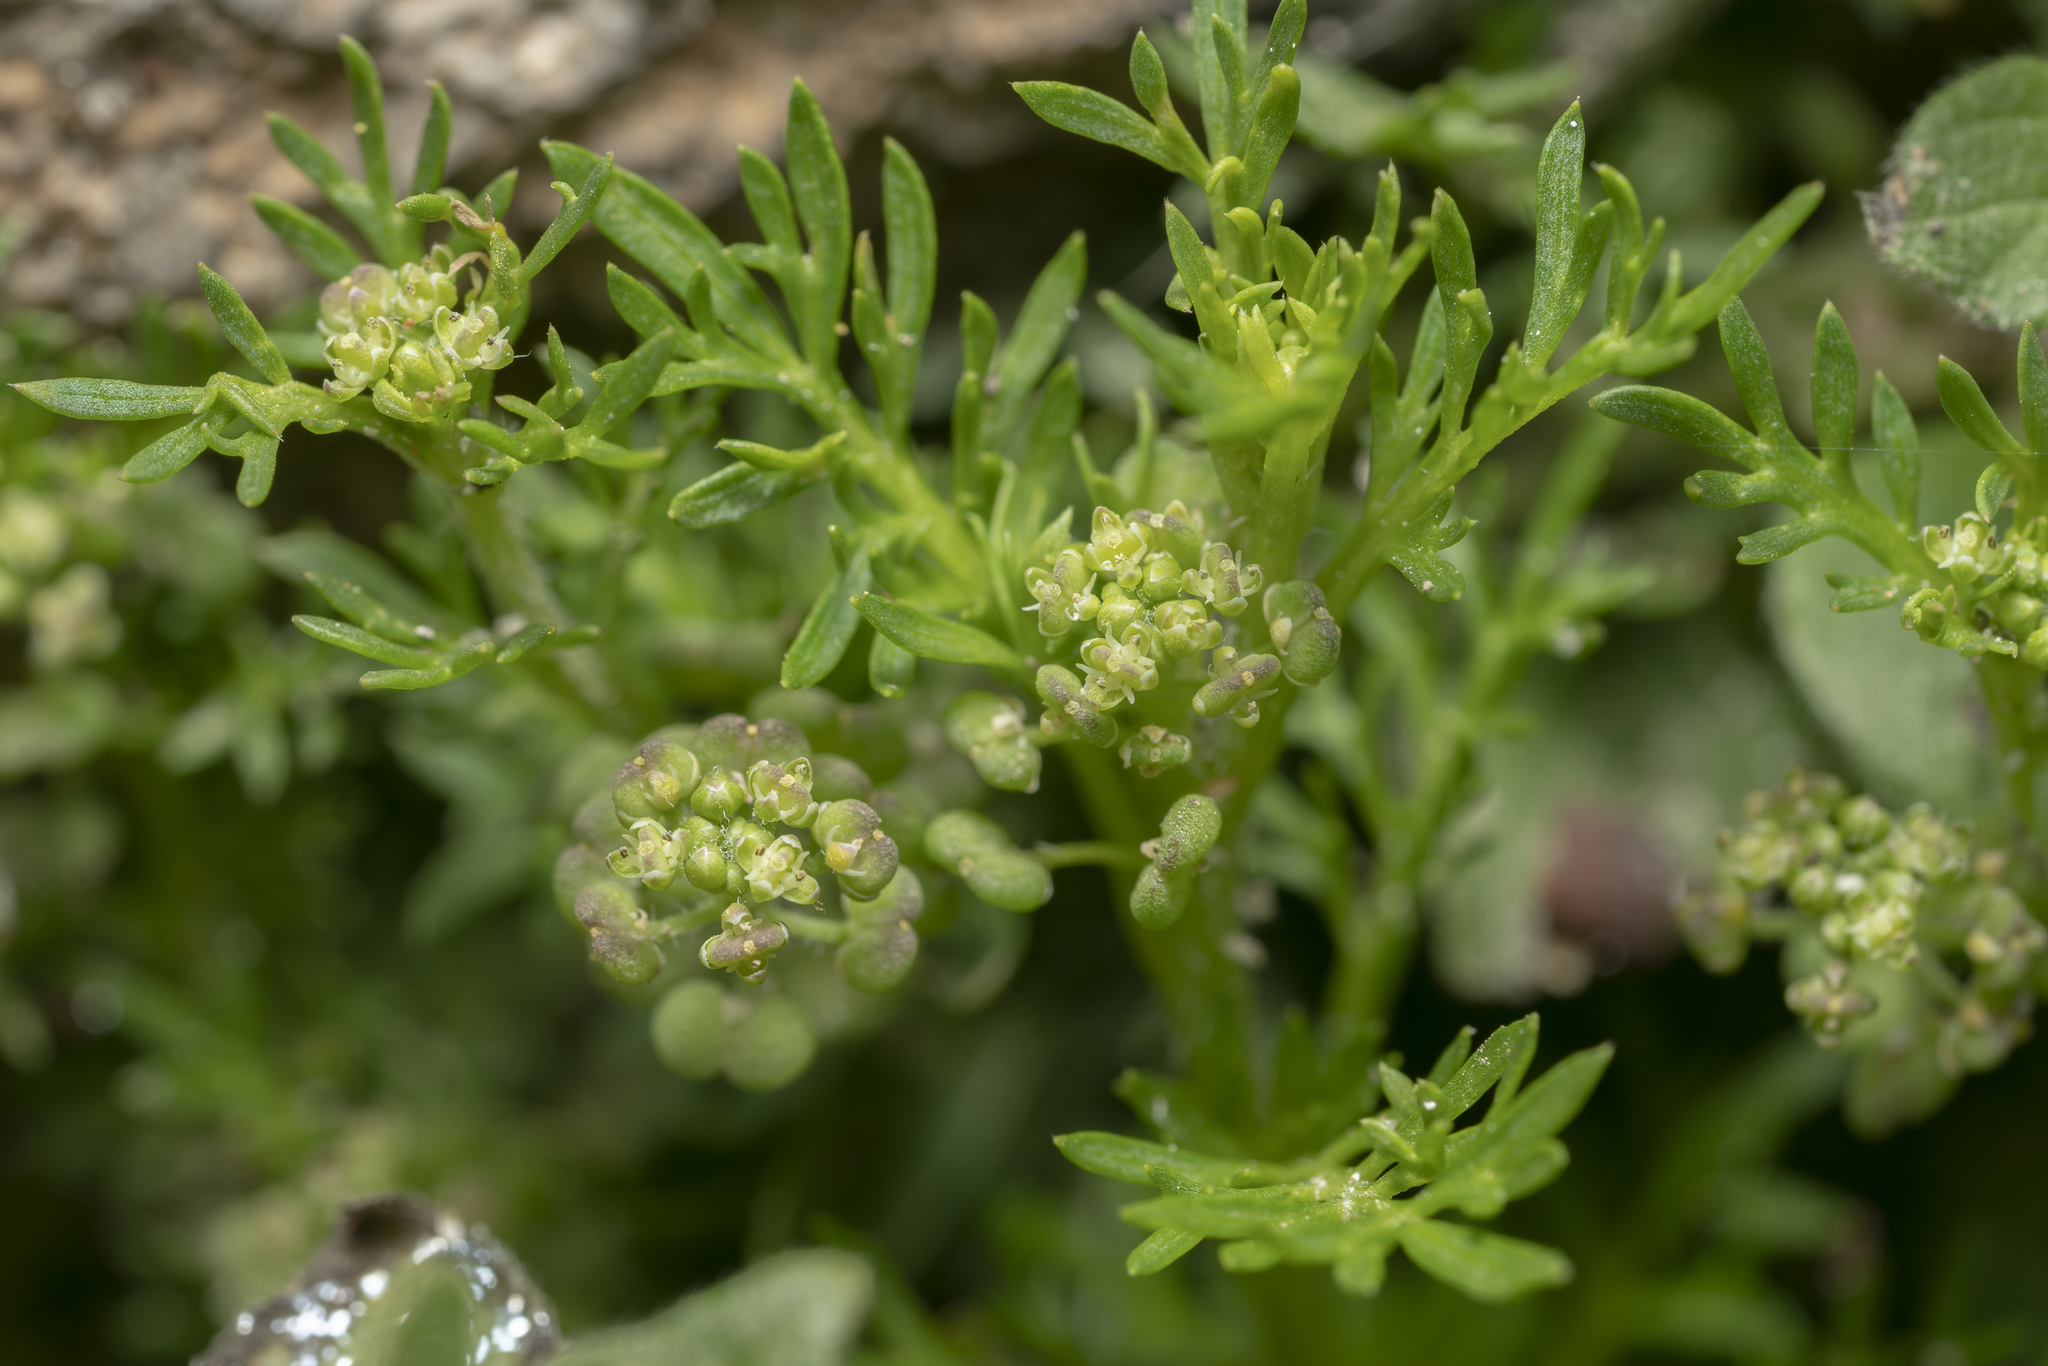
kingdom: Plantae
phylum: Tracheophyta
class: Magnoliopsida
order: Brassicales
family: Brassicaceae
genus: Lepidium
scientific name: Lepidium didymum
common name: Lesser swinecress
